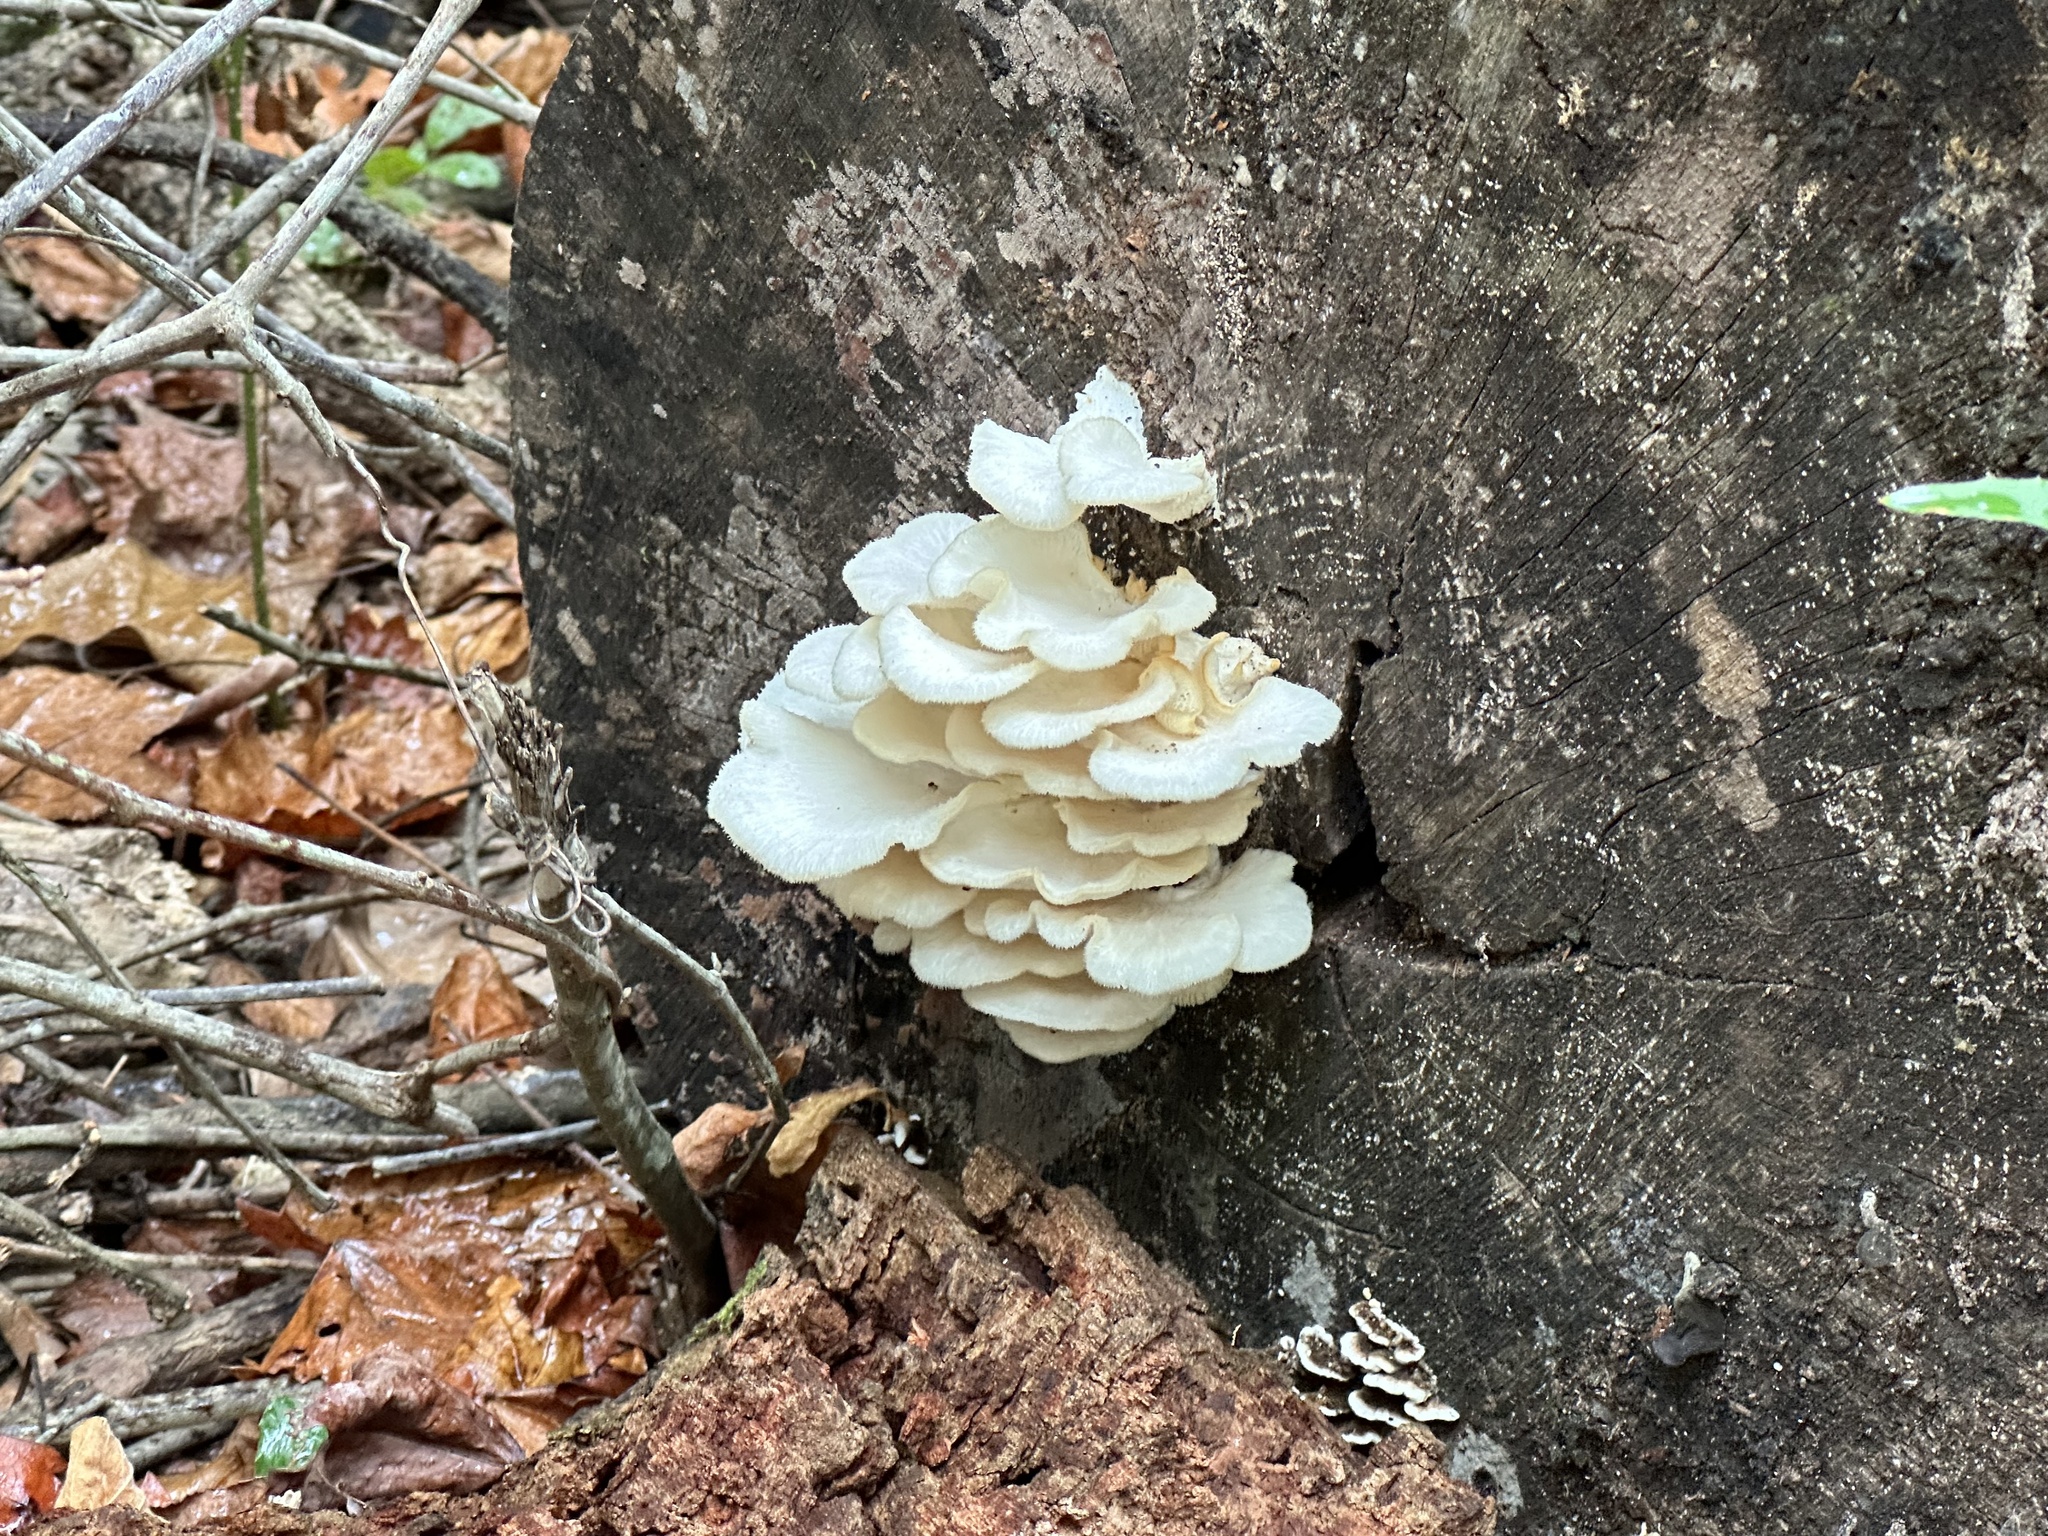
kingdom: Fungi
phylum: Basidiomycota
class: Agaricomycetes
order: Polyporales
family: Polyporaceae
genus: Favolus
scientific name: Favolus tenuiculus
